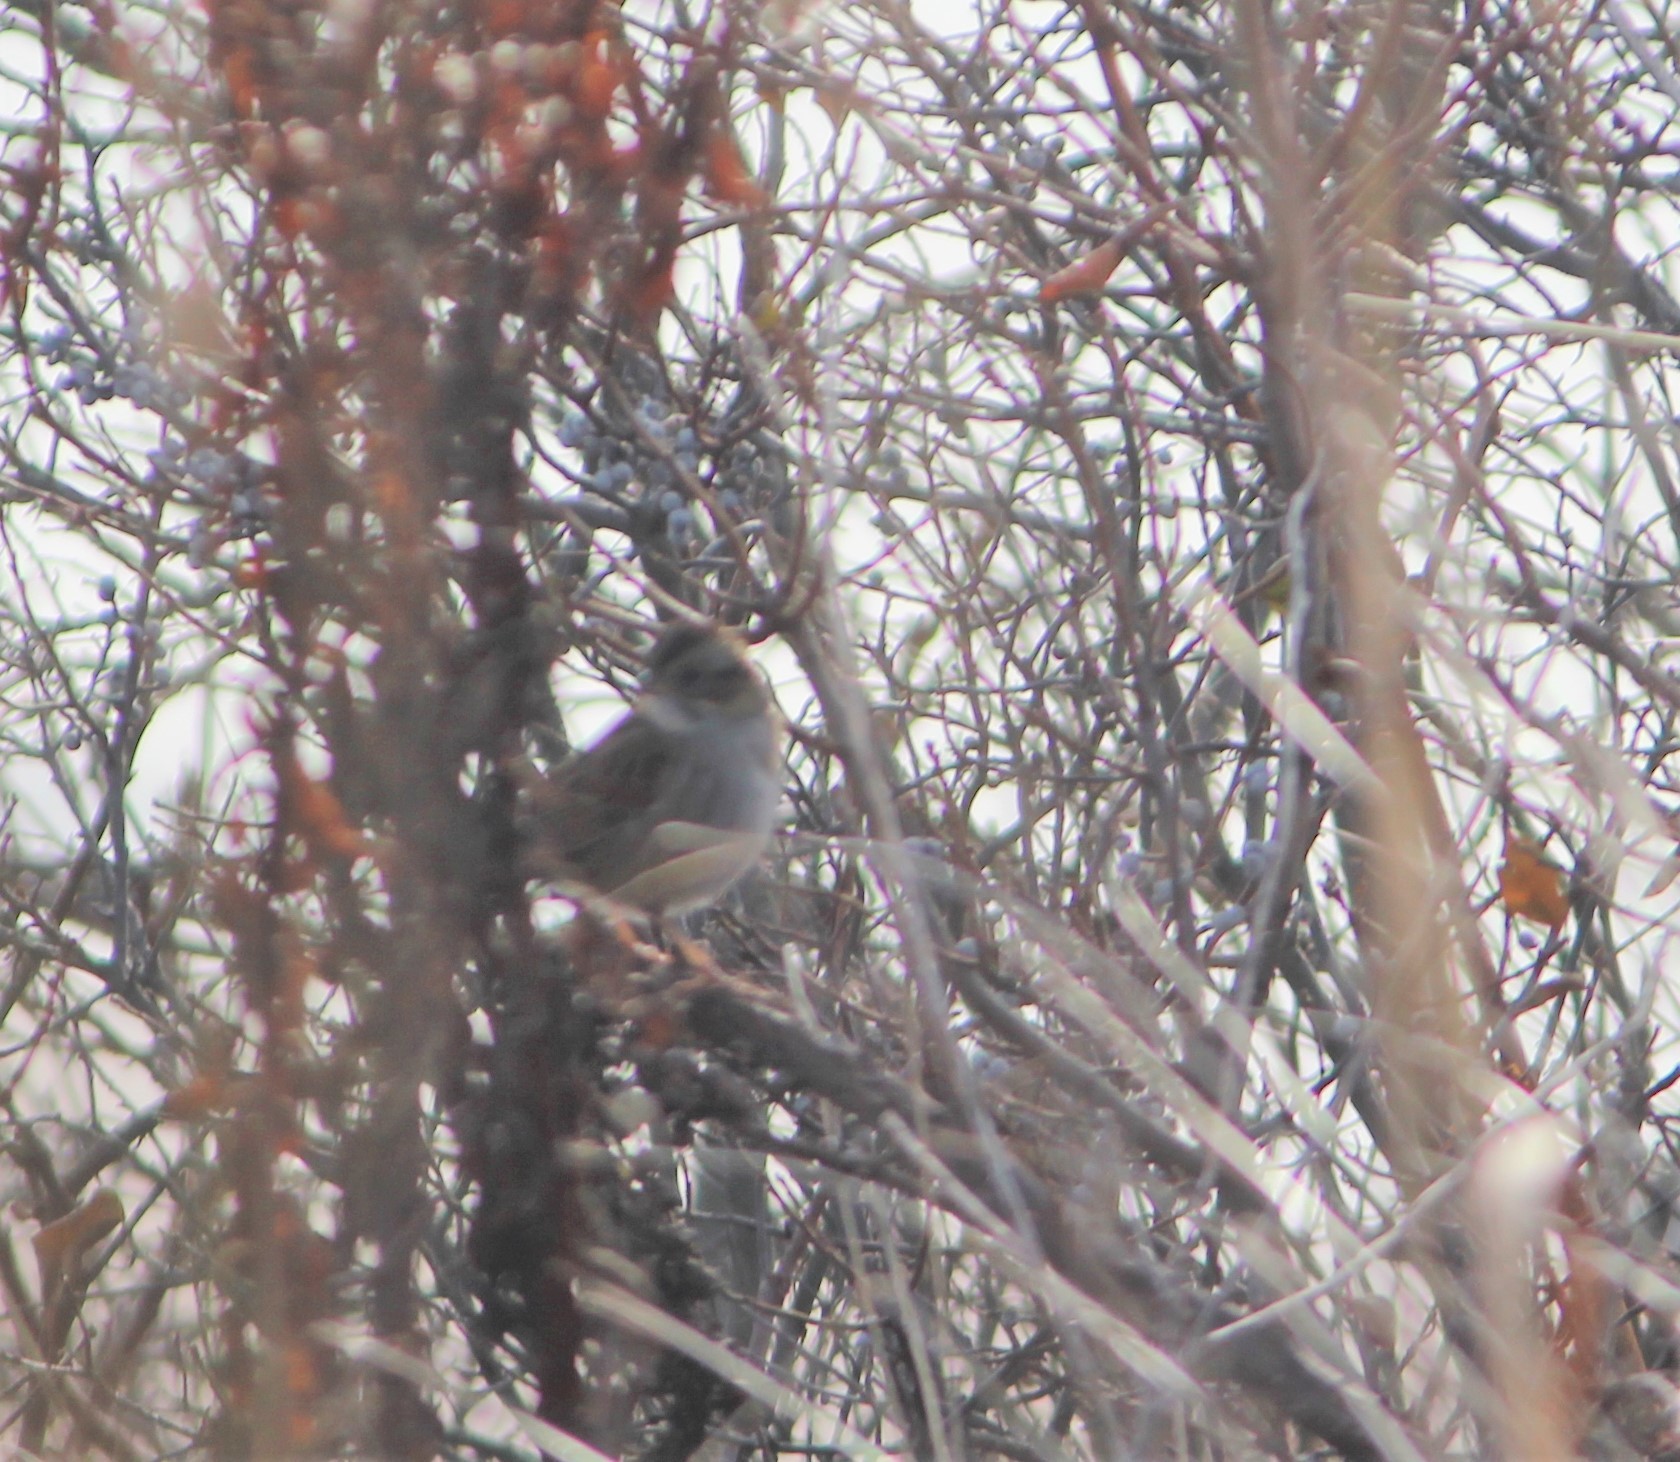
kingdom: Animalia
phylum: Chordata
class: Aves
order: Passeriformes
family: Passerellidae
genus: Melospiza
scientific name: Melospiza georgiana
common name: Swamp sparrow
